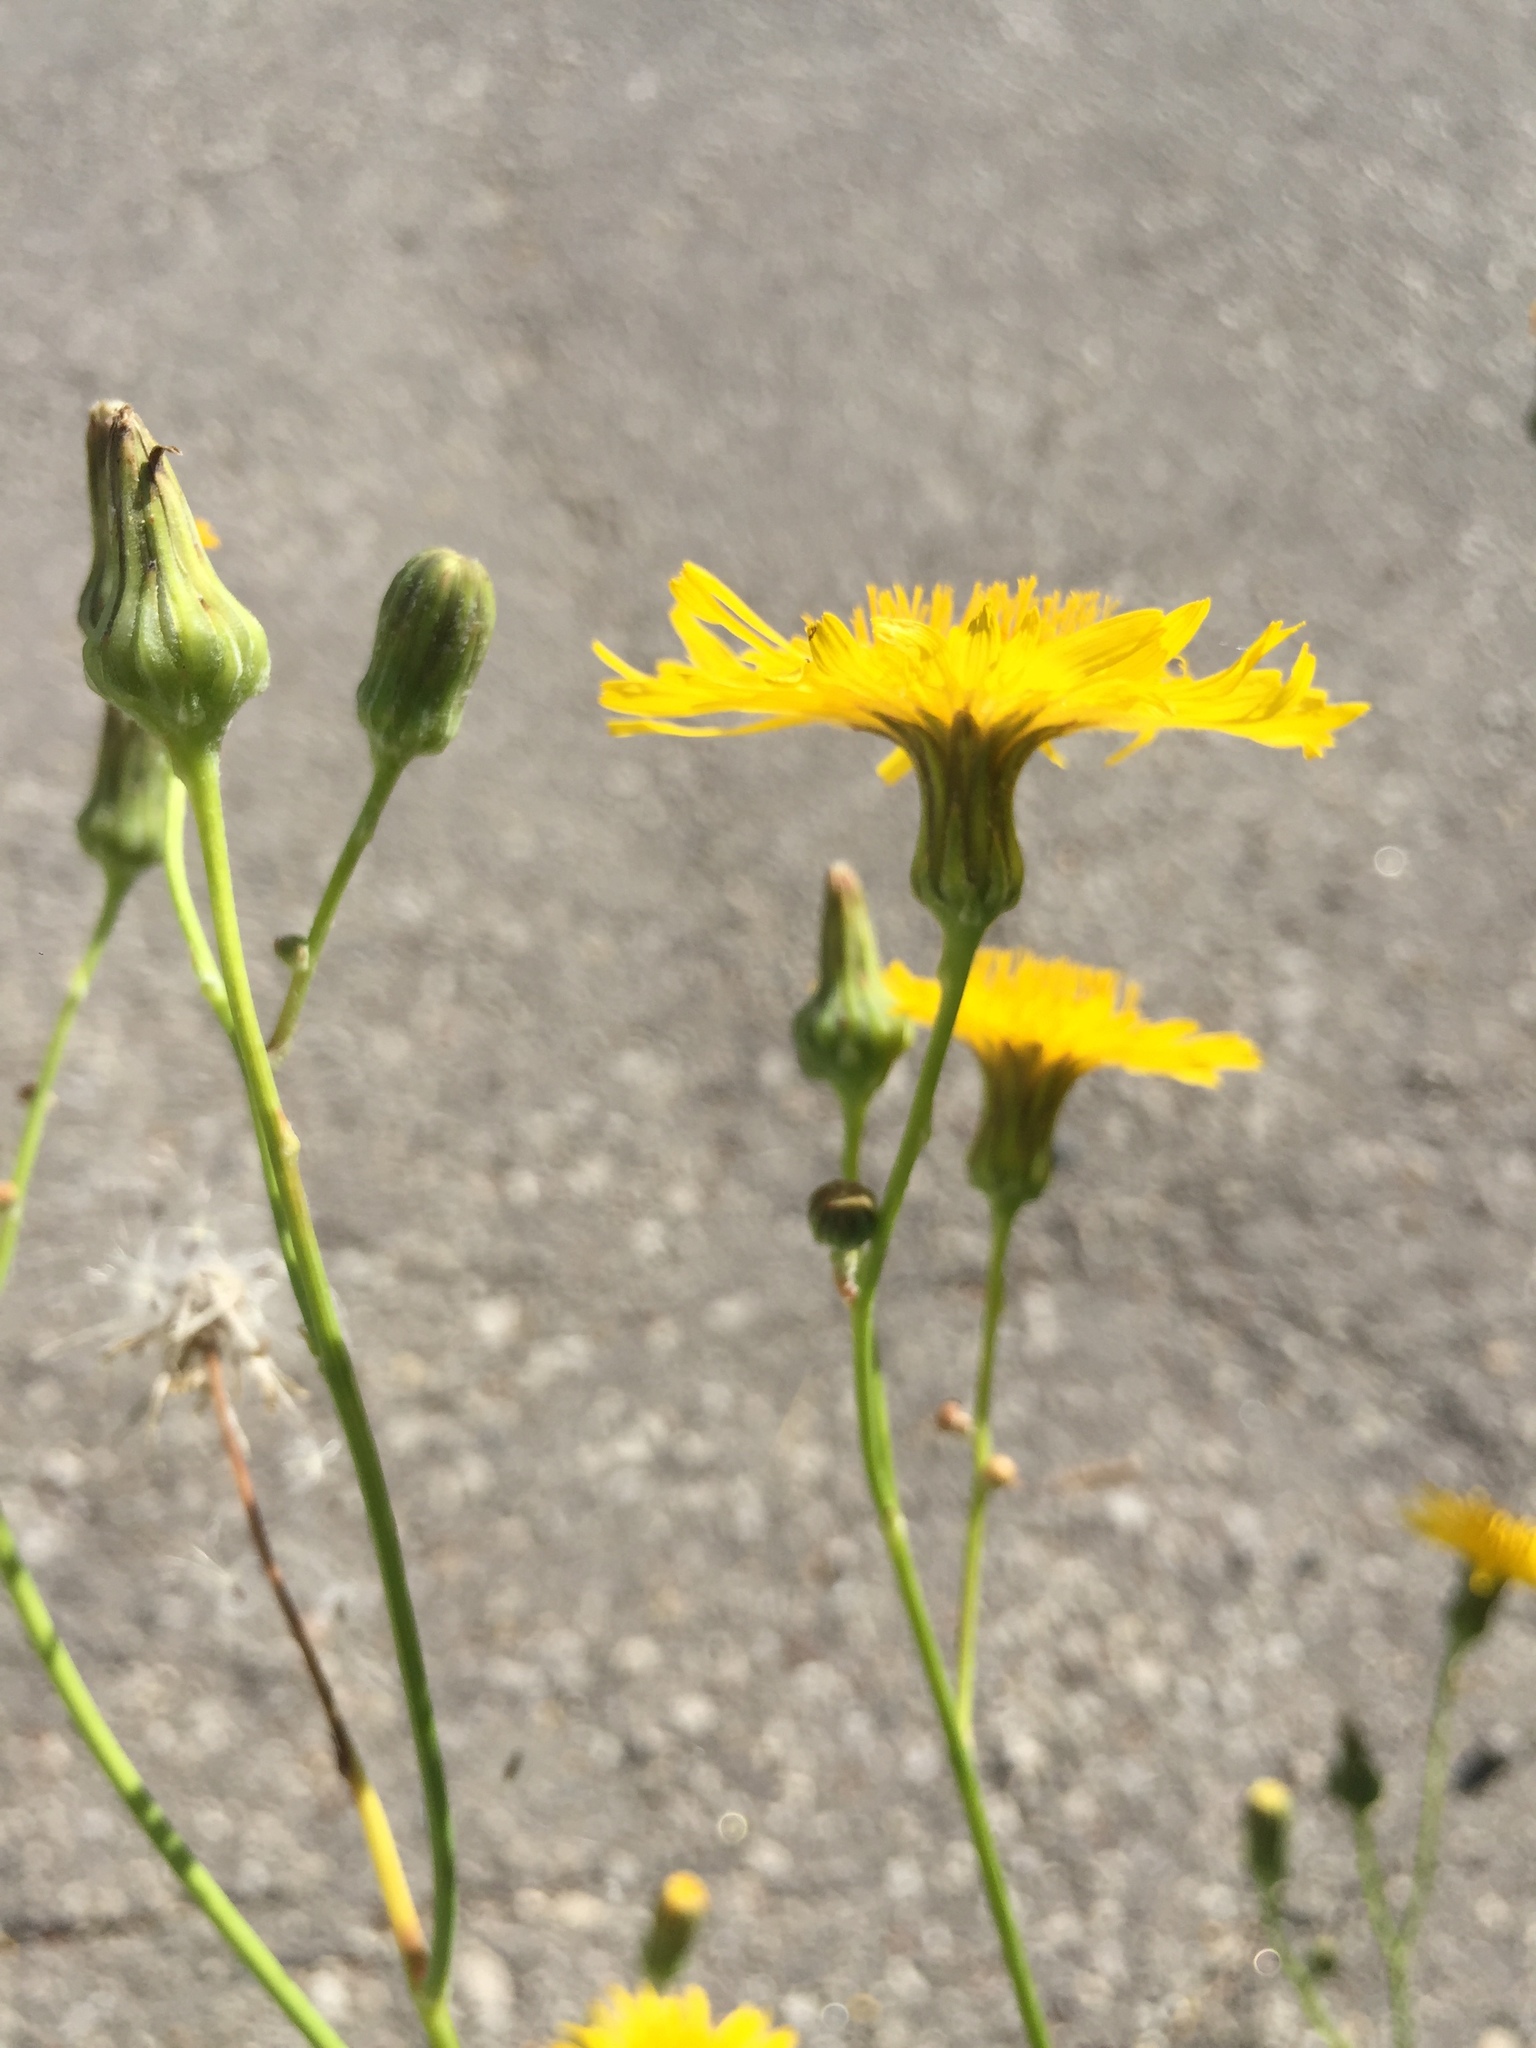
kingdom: Plantae
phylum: Tracheophyta
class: Magnoliopsida
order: Asterales
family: Asteraceae
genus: Sonchus
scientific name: Sonchus arvensis
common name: Perennial sow-thistle
